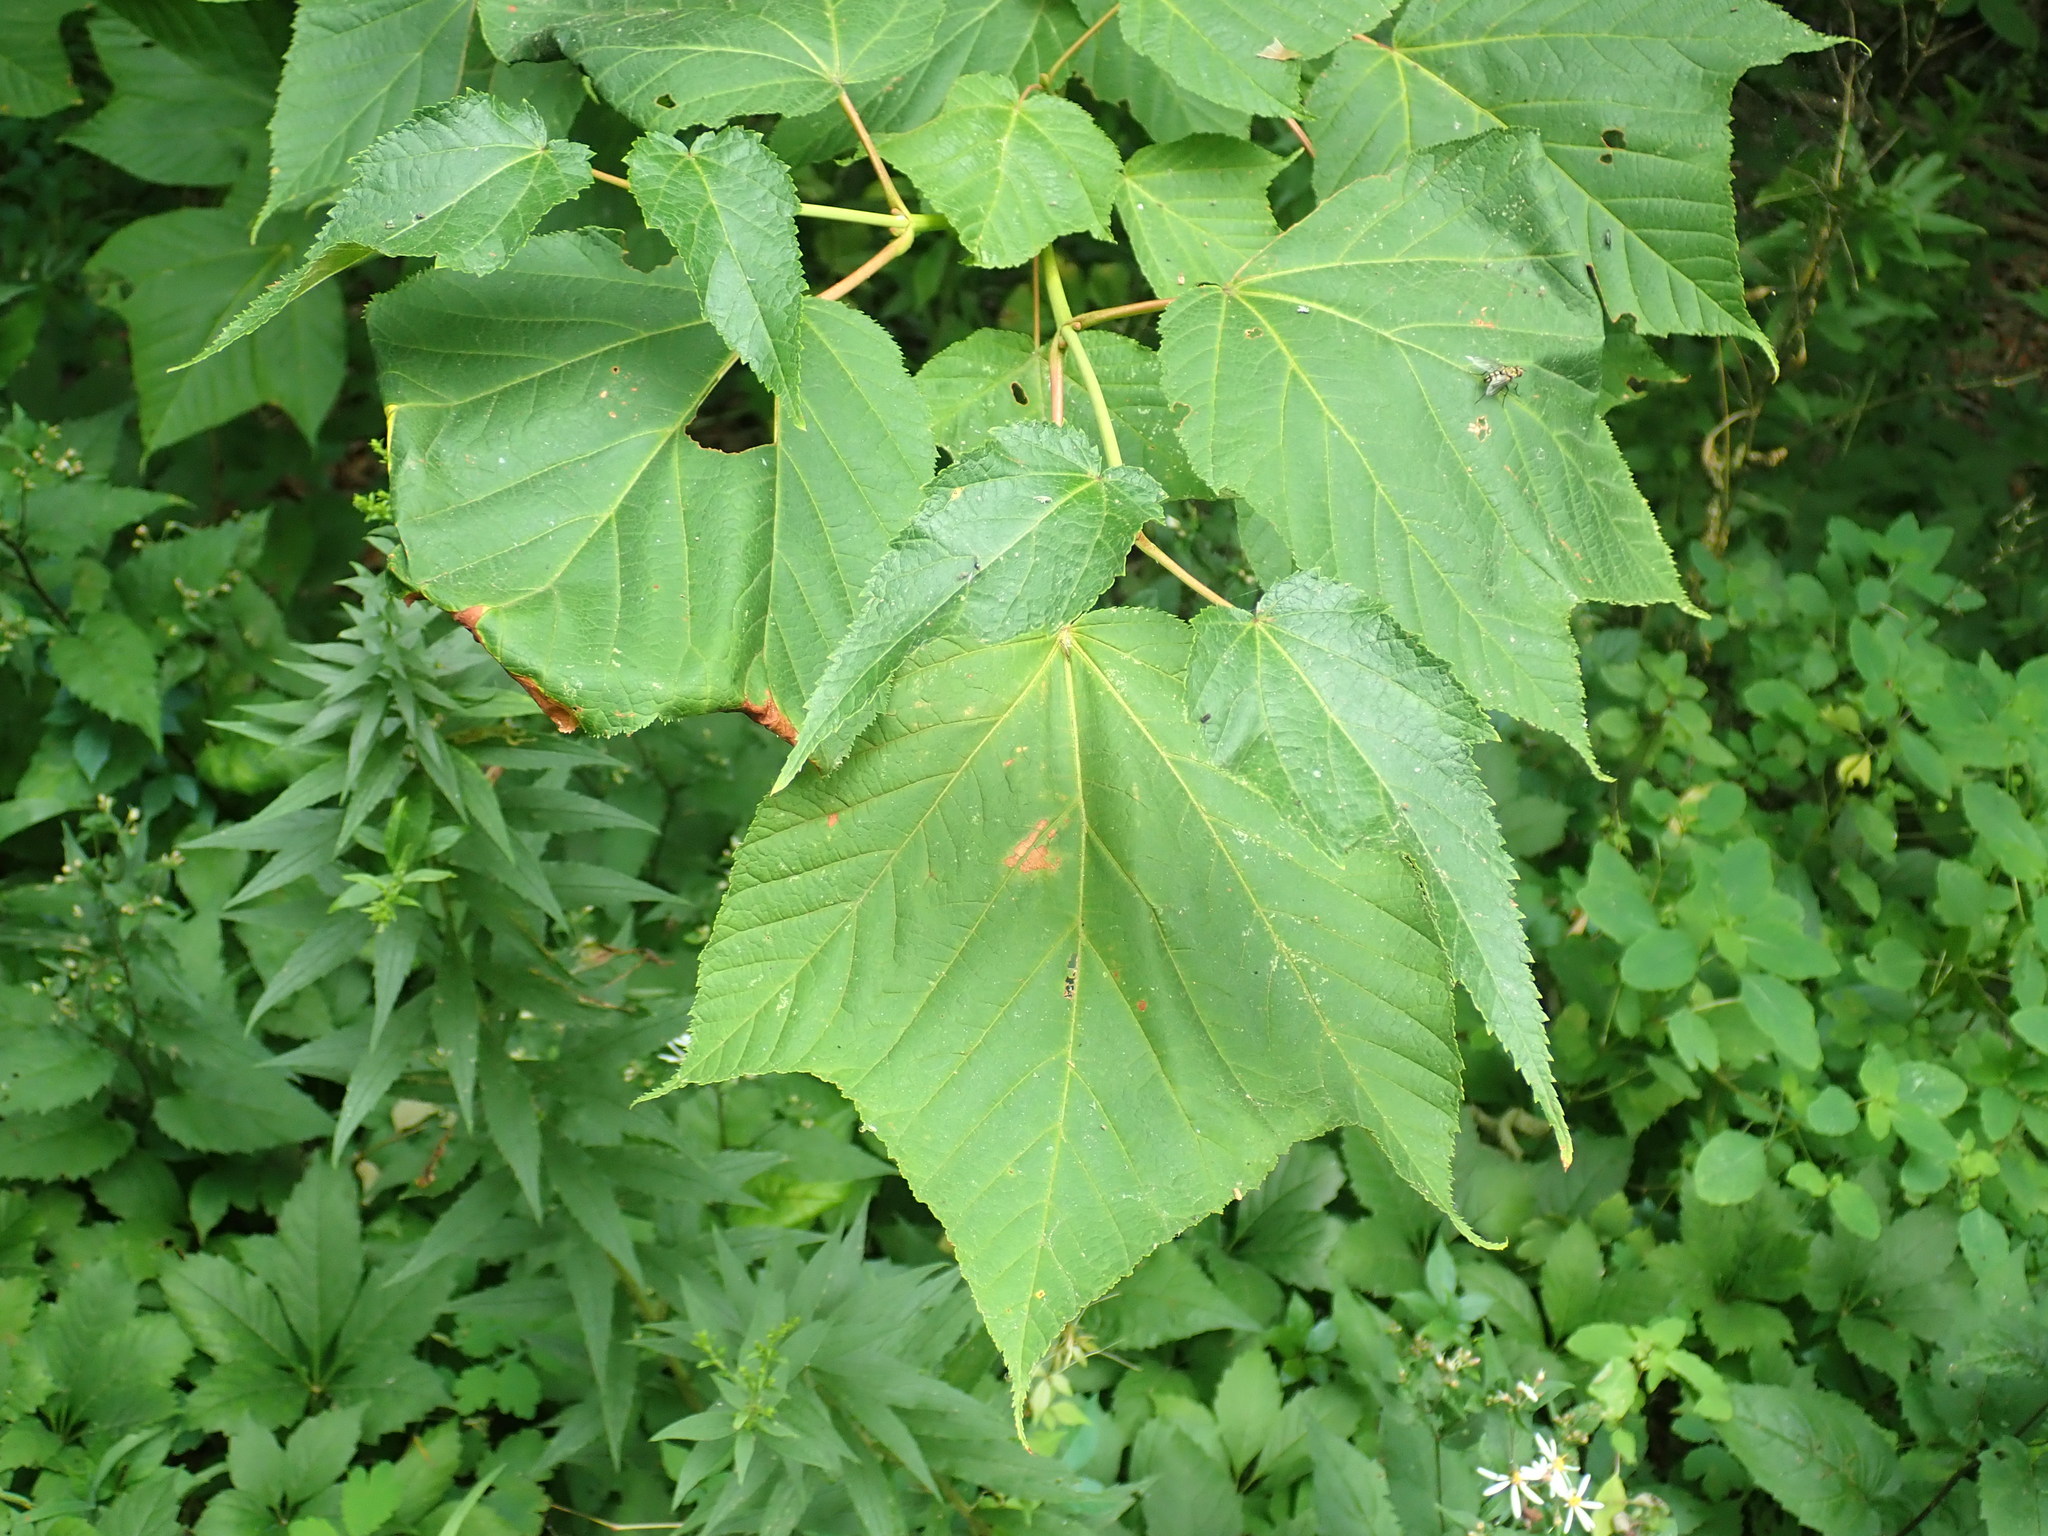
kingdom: Plantae
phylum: Tracheophyta
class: Magnoliopsida
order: Sapindales
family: Sapindaceae
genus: Acer
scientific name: Acer pensylvanicum
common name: Moosewood
